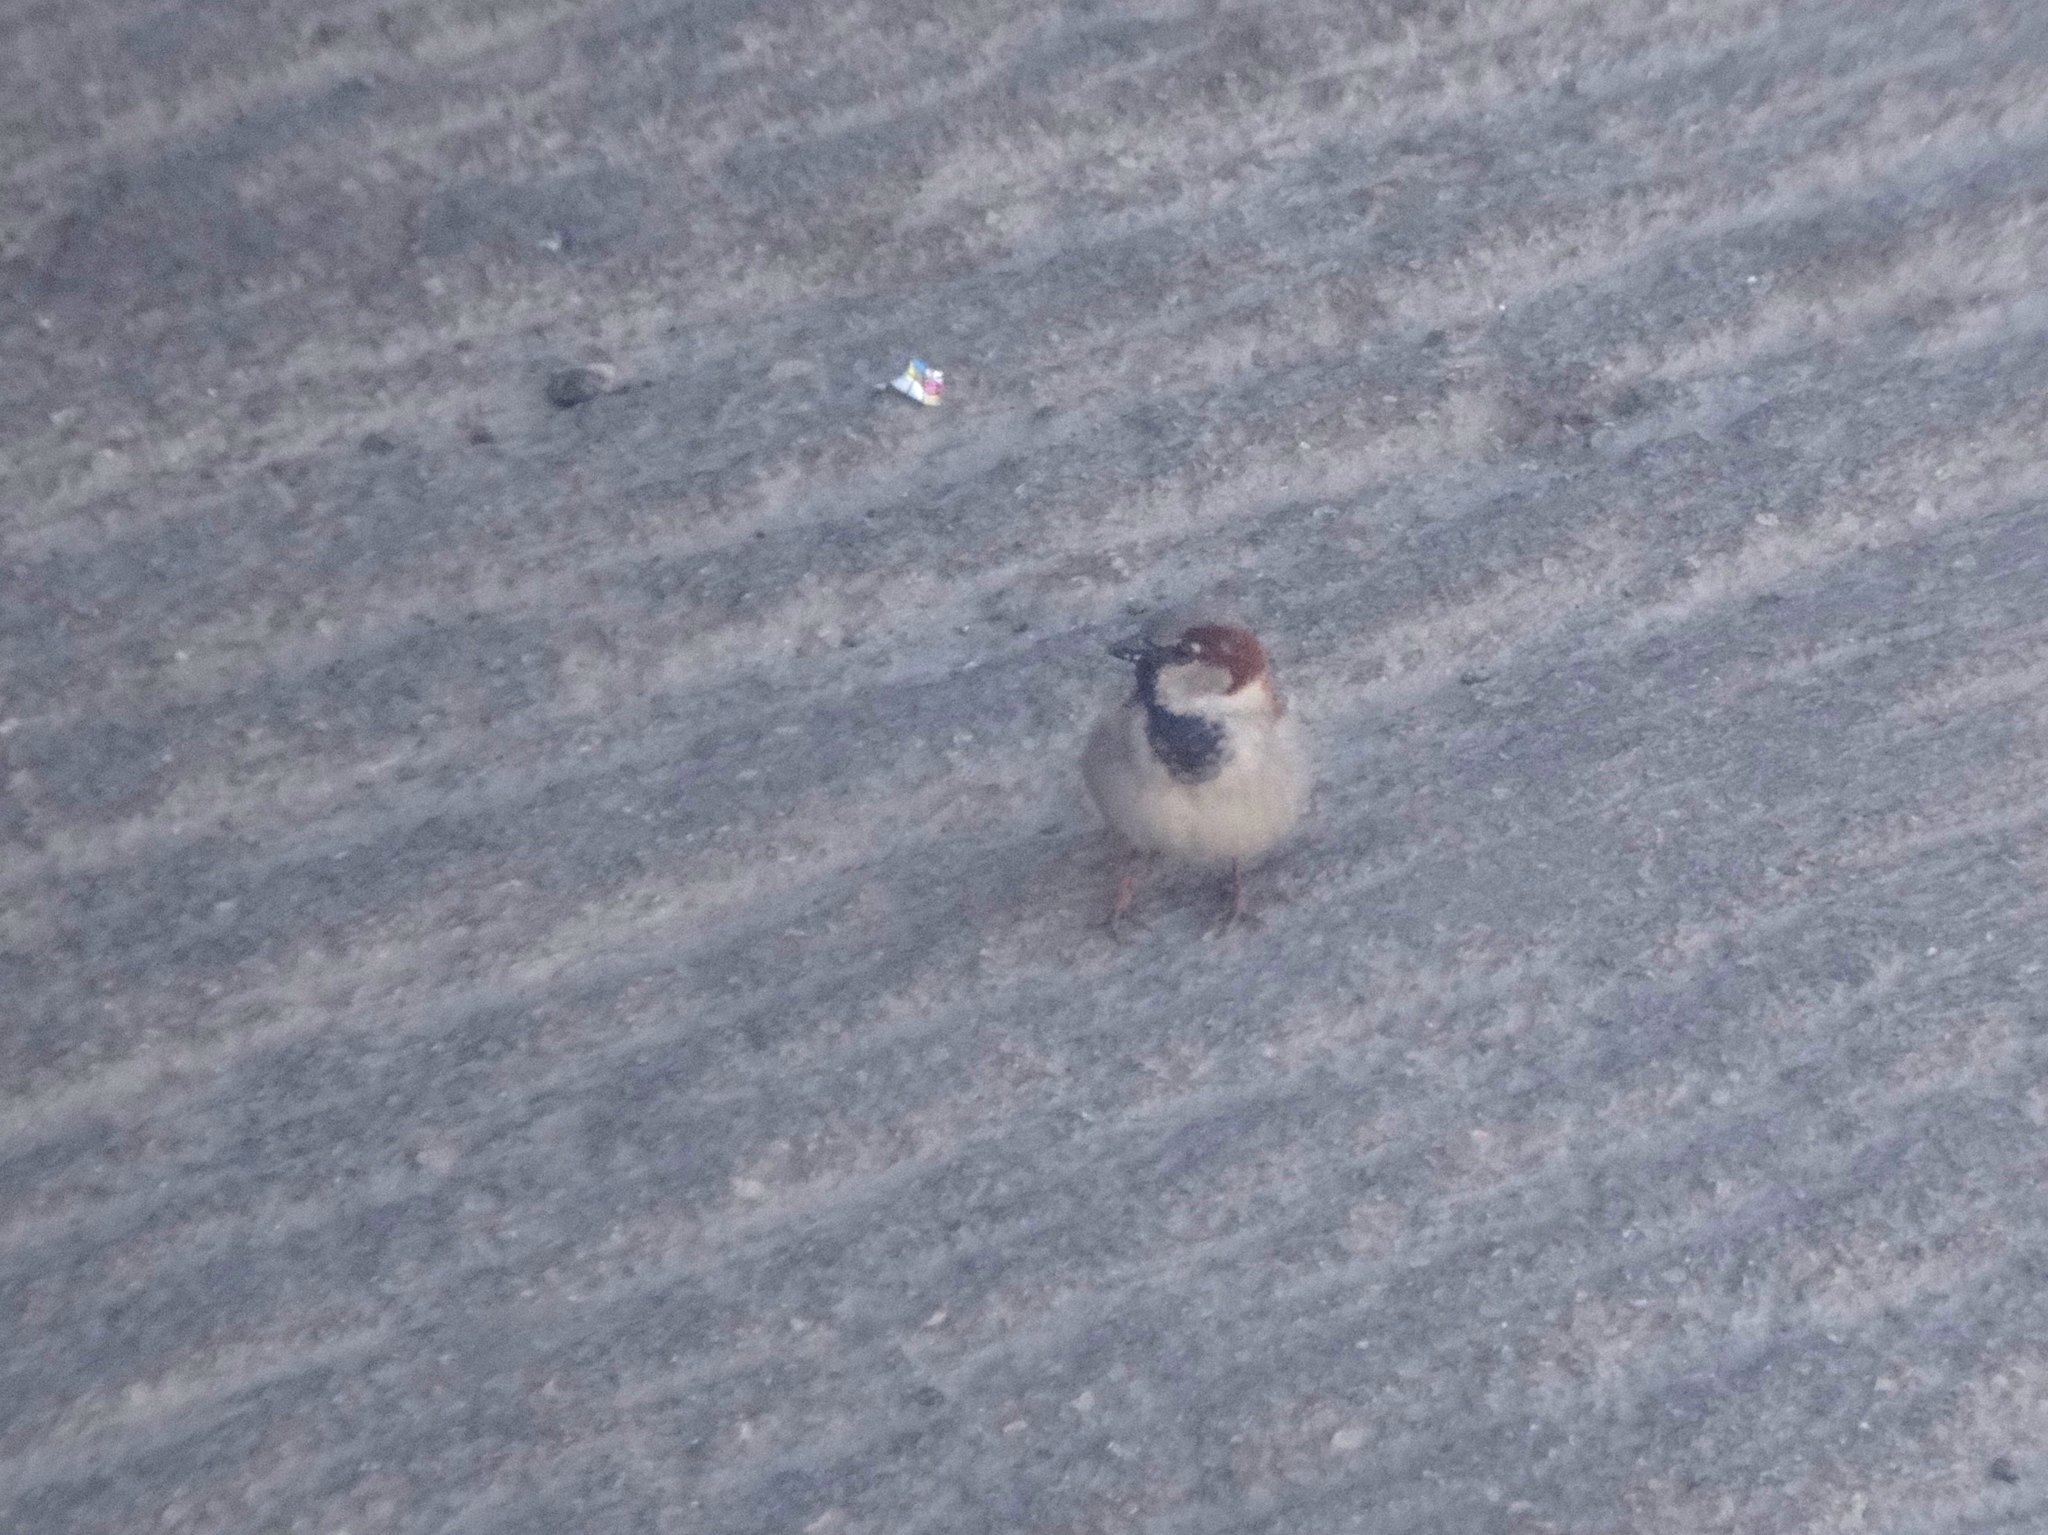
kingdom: Animalia
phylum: Chordata
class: Aves
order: Passeriformes
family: Passeridae
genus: Passer
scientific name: Passer domesticus
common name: House sparrow
